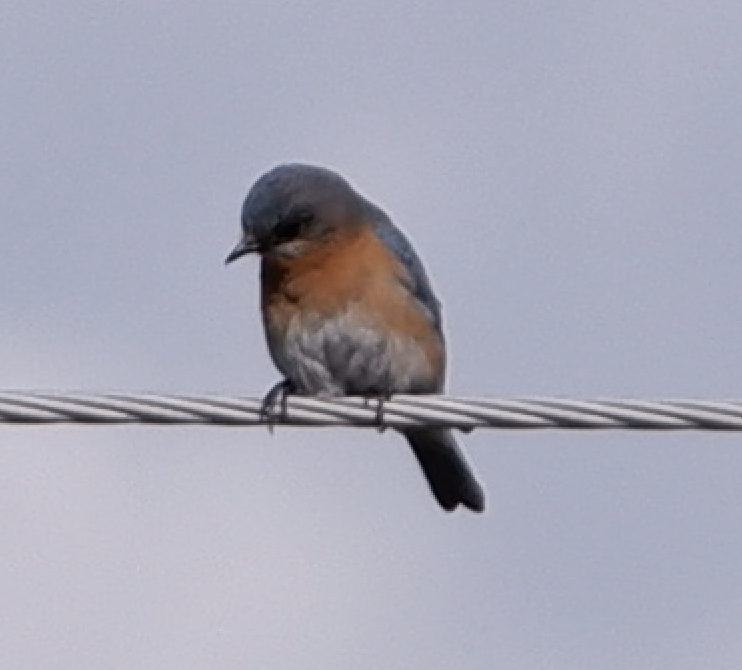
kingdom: Animalia
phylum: Chordata
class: Aves
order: Passeriformes
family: Turdidae
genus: Sialia
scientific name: Sialia sialis
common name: Eastern bluebird
